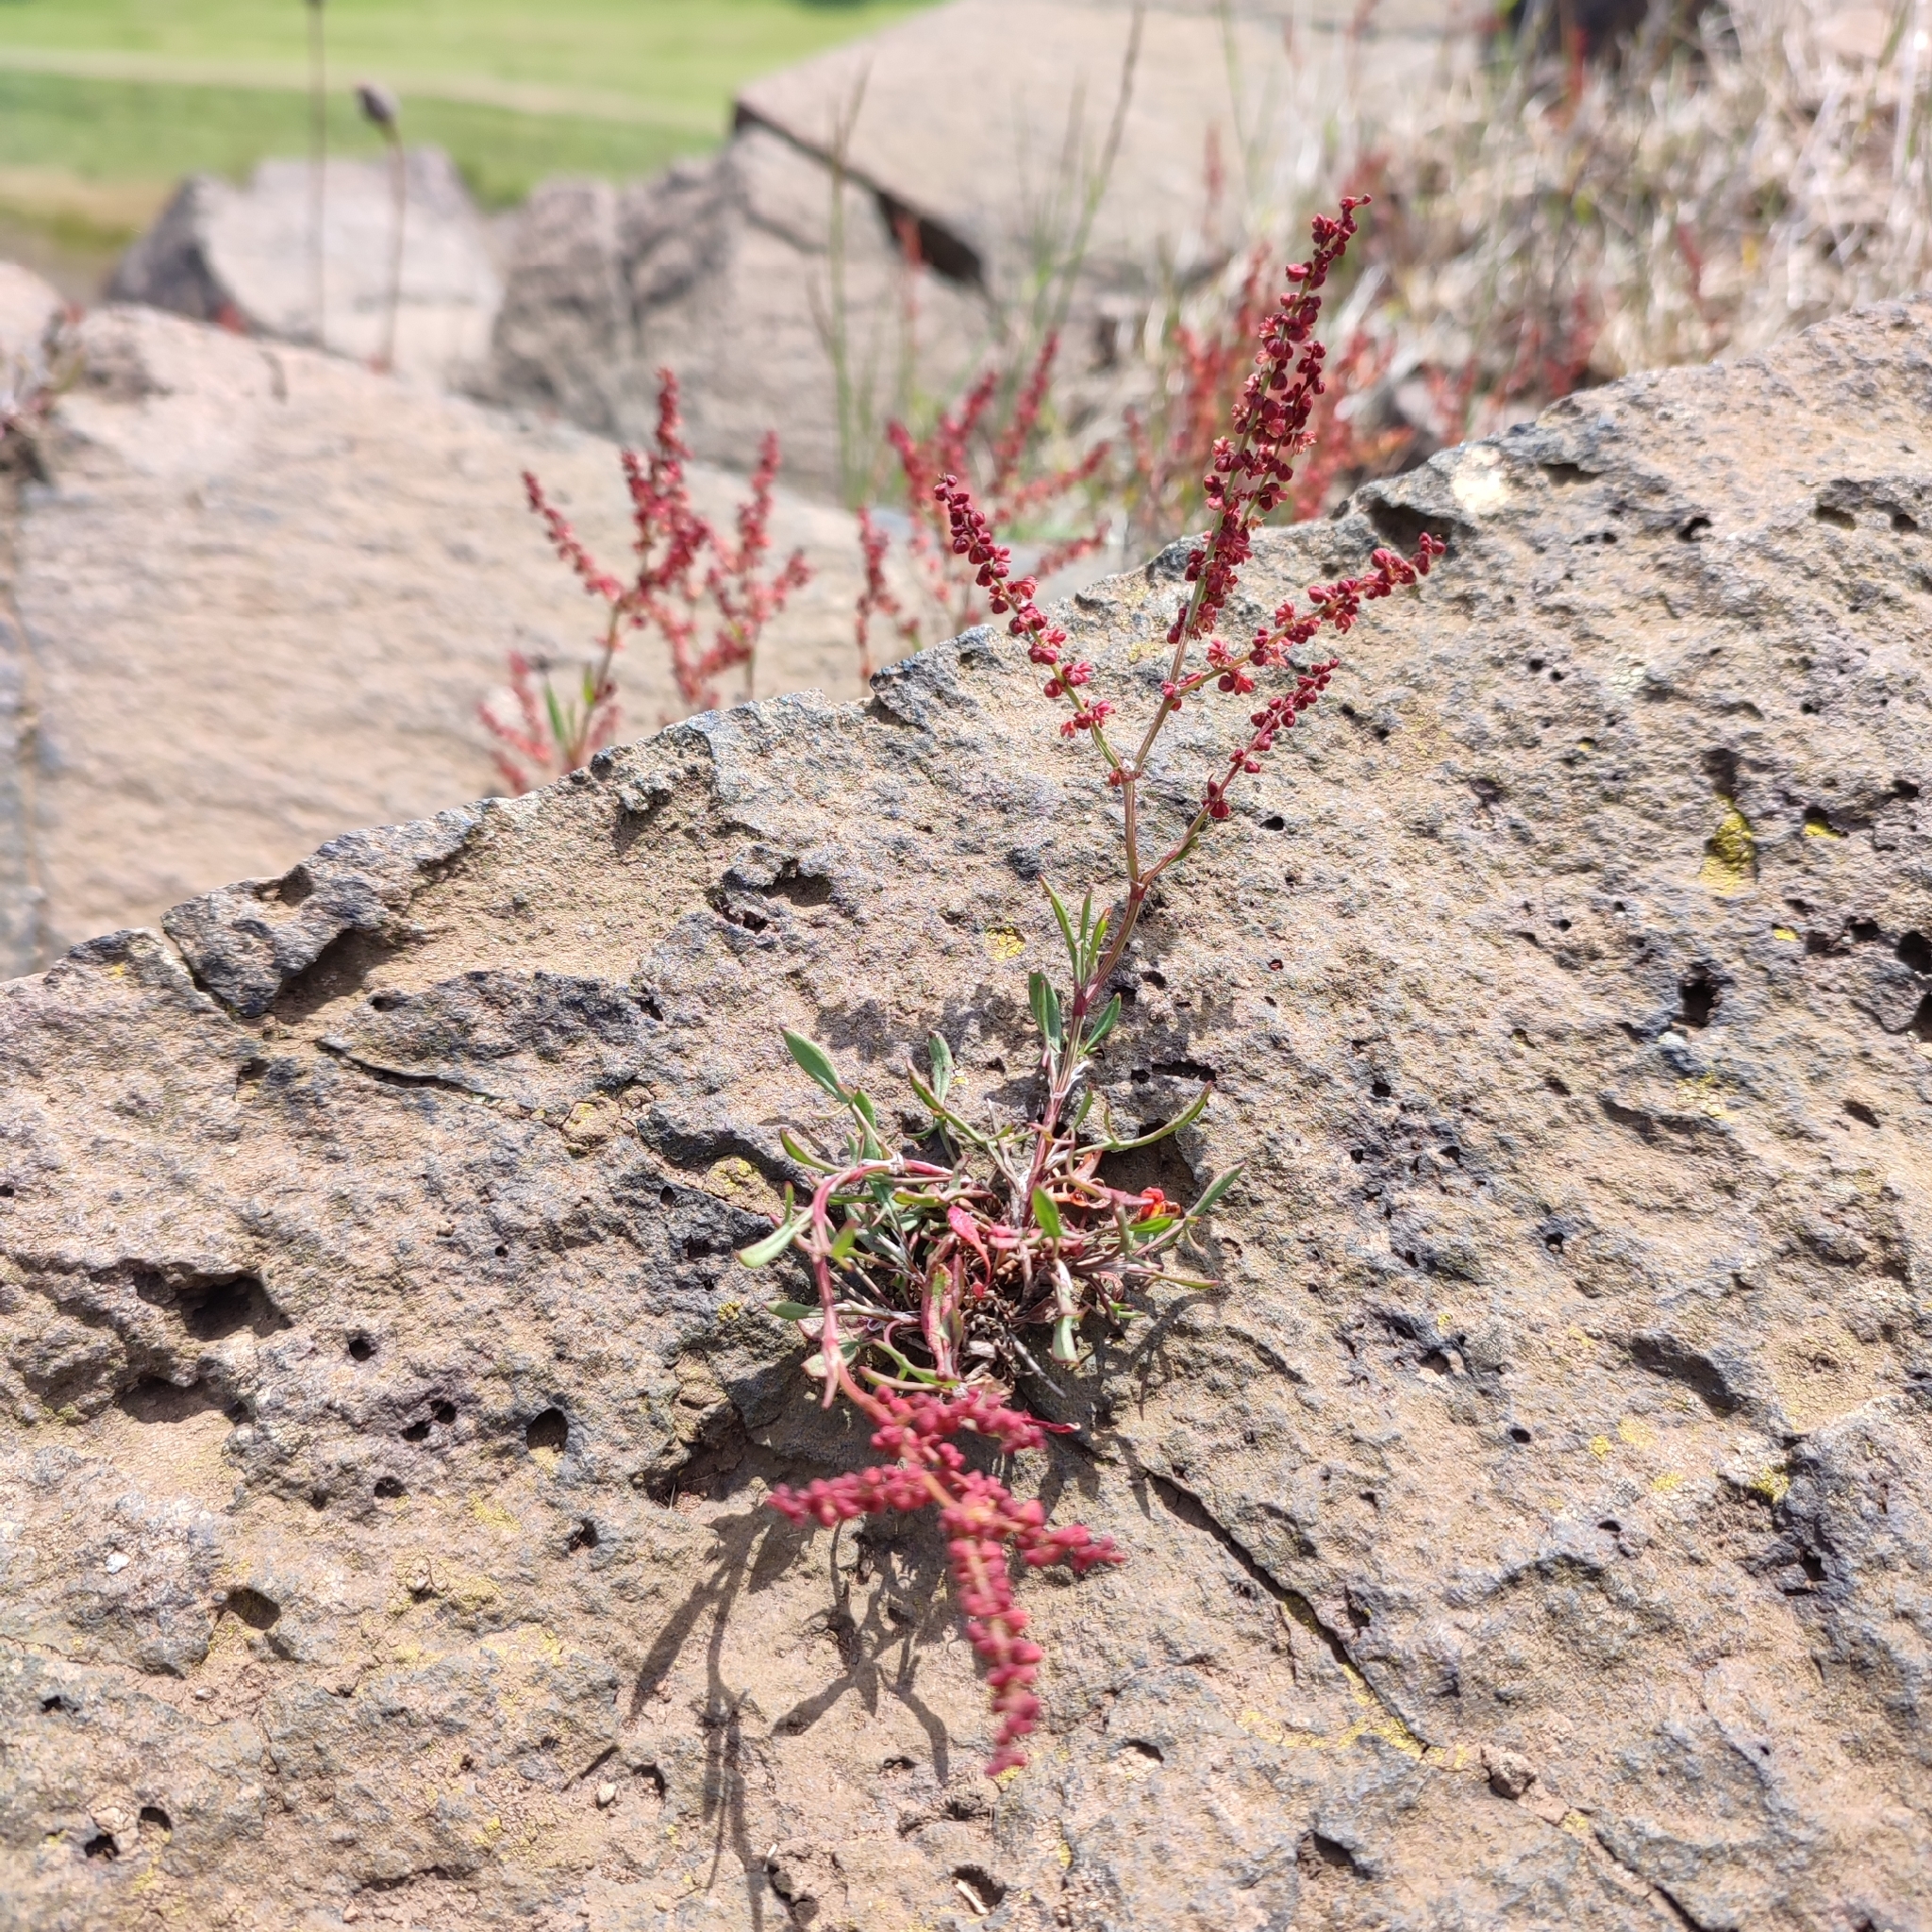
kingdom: Plantae
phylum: Tracheophyta
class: Magnoliopsida
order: Caryophyllales
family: Polygonaceae
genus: Rumex
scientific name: Rumex acetosella
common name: Common sheep sorrel
